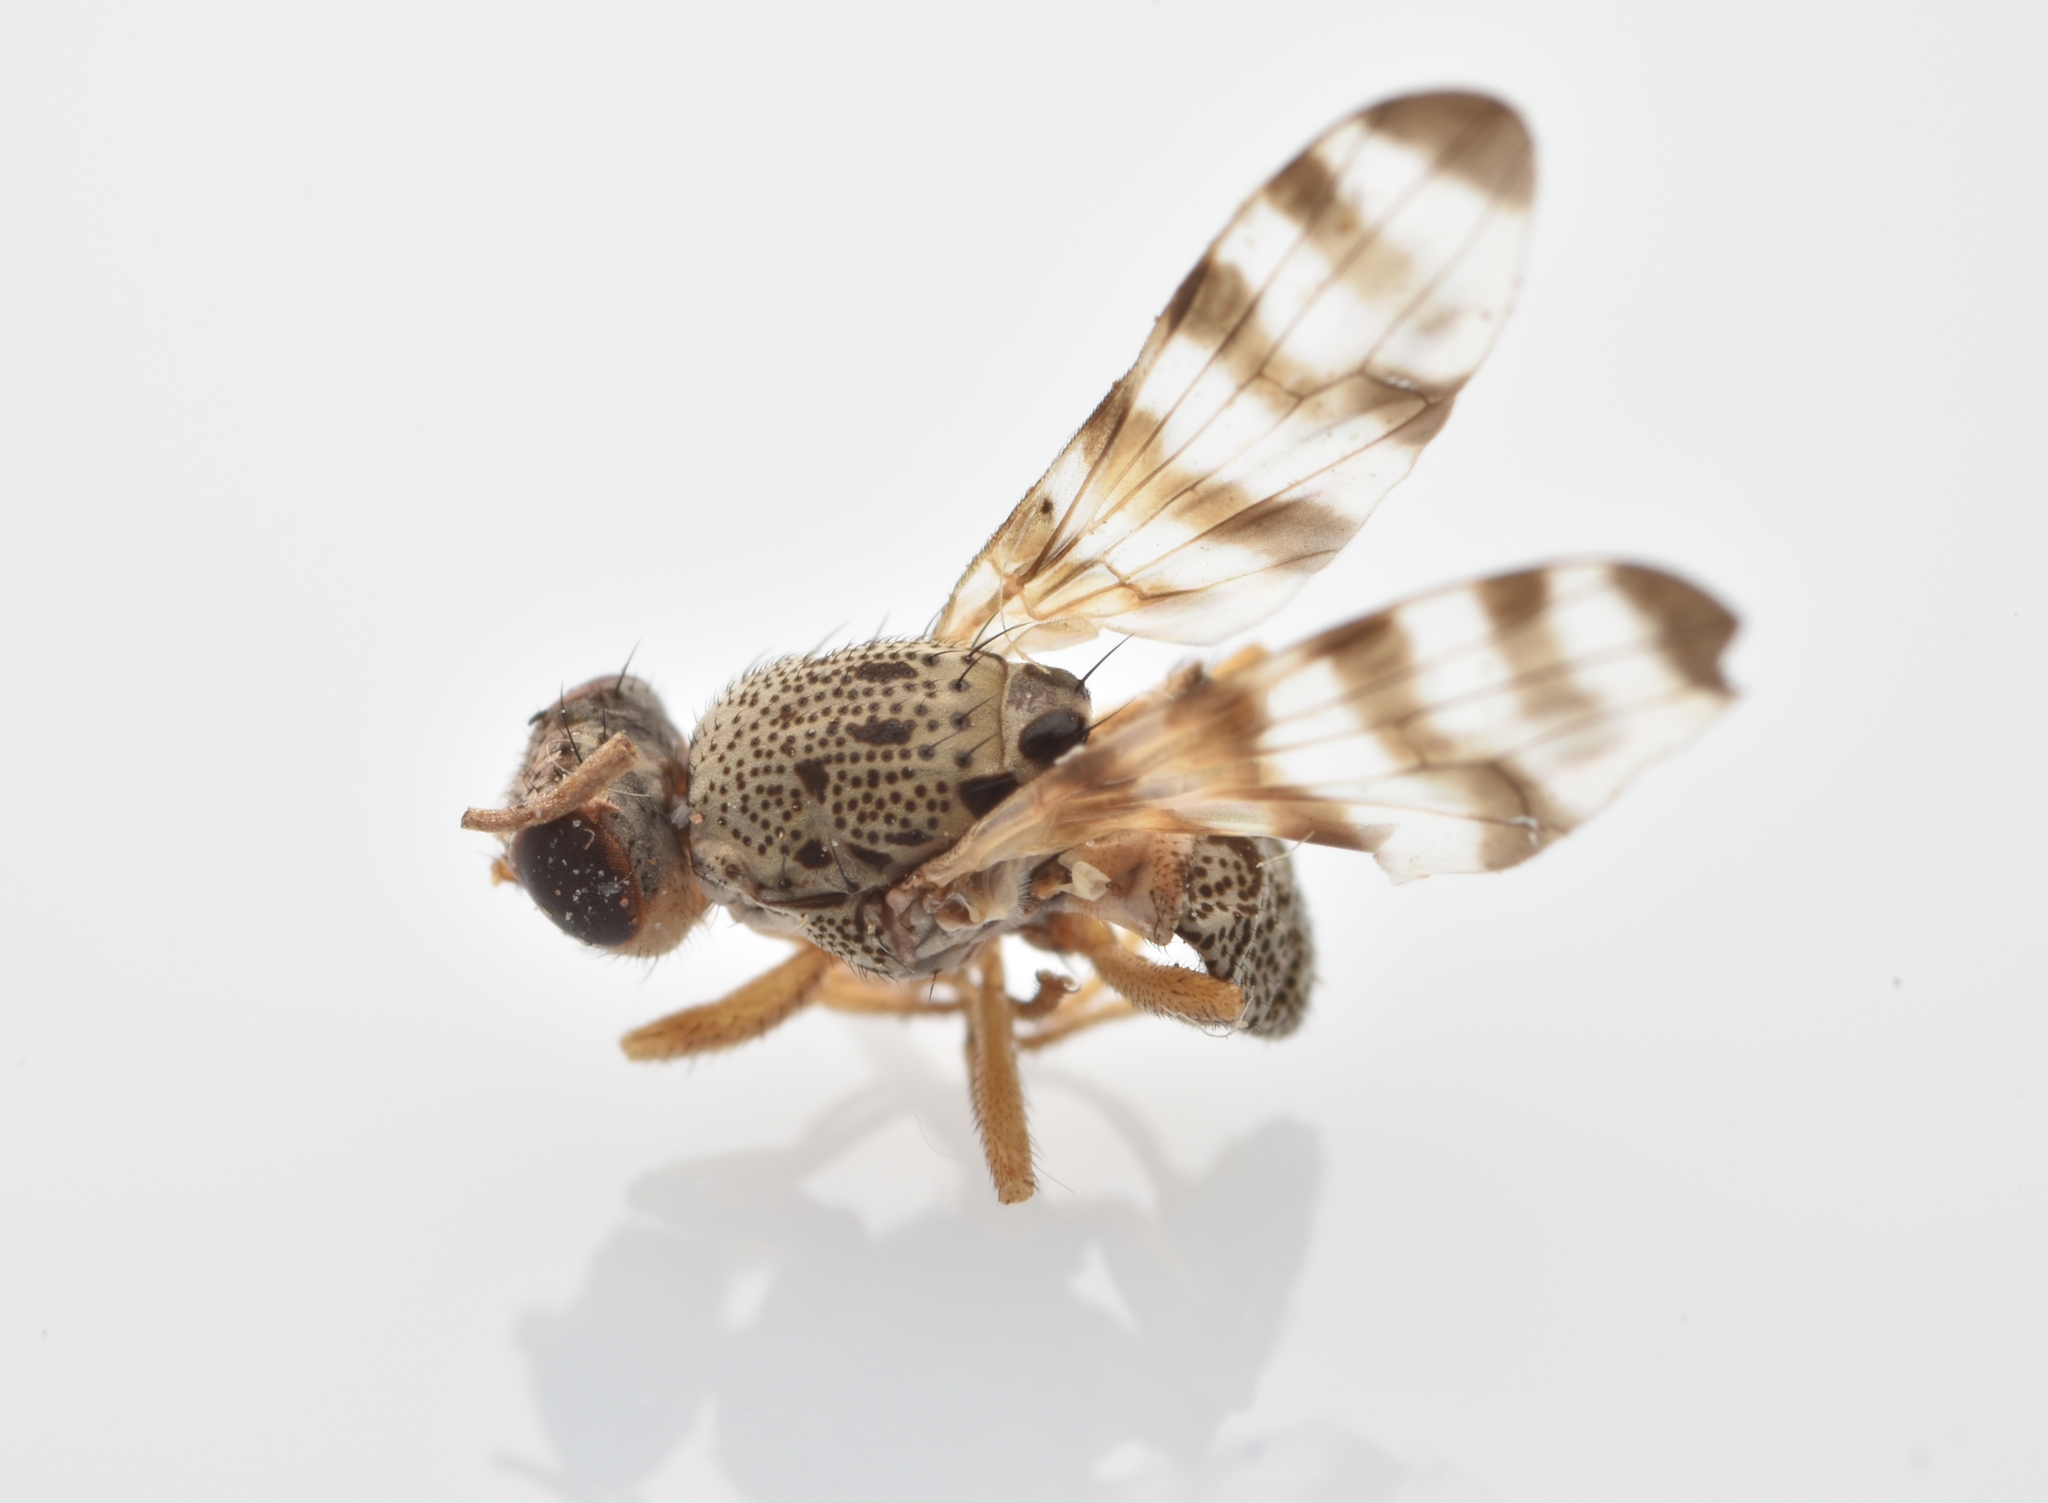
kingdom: Animalia
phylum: Arthropoda
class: Insecta
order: Diptera
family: Ulidiidae
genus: Pseudotephritina
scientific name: Pseudotephritina cribellum
